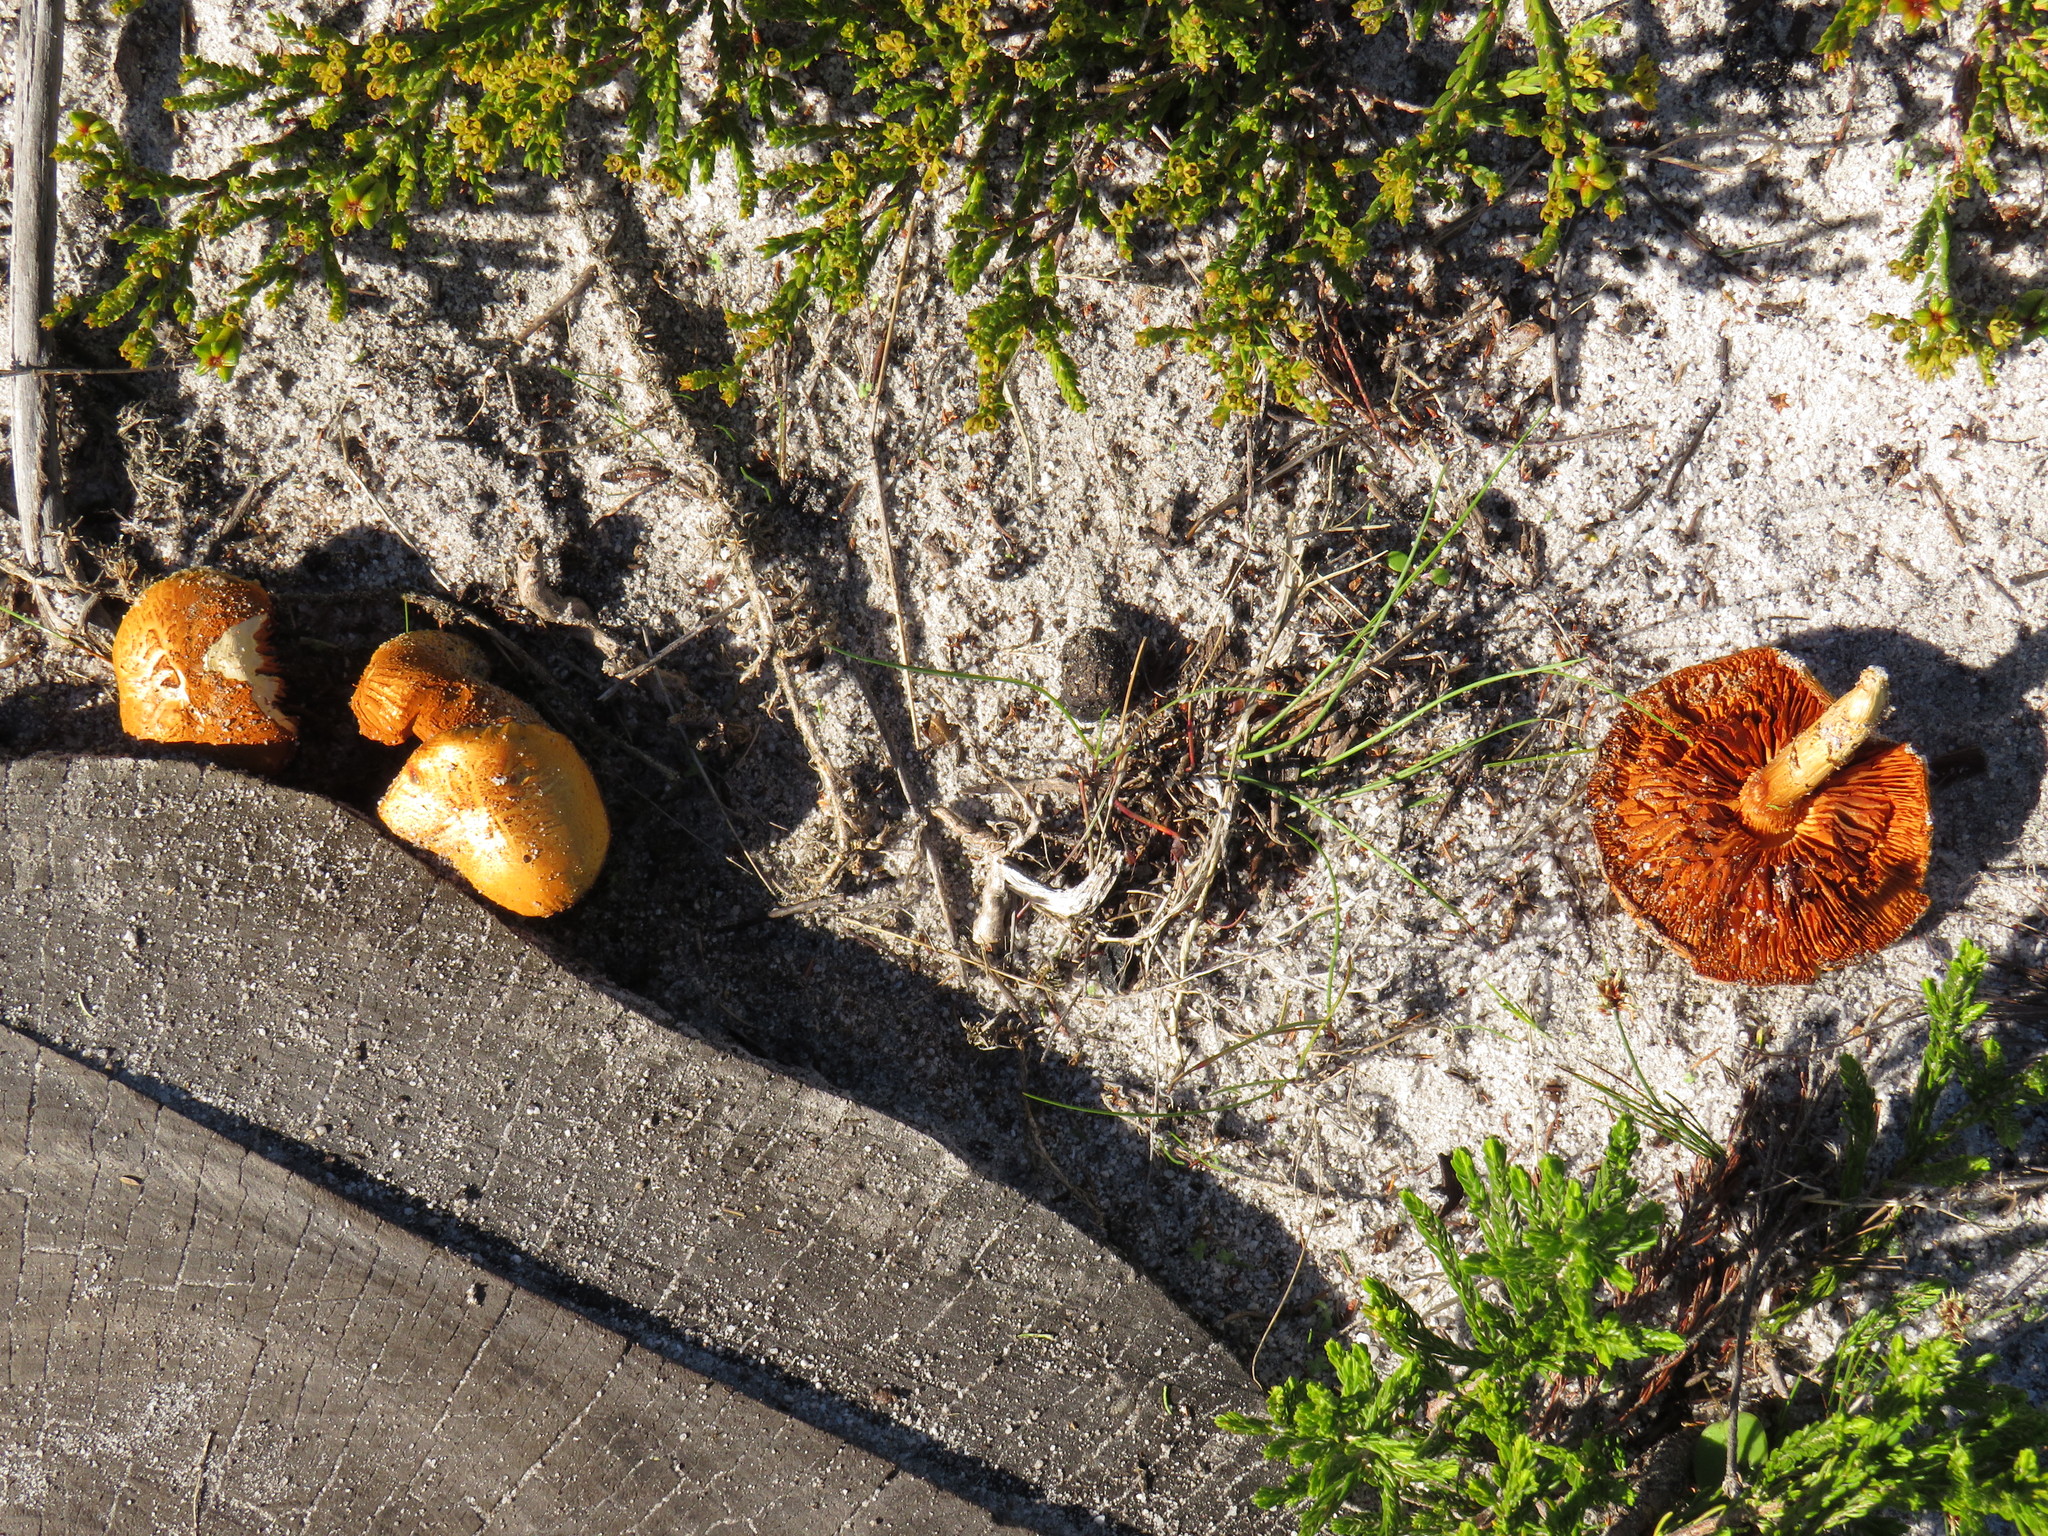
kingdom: Fungi
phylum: Basidiomycota
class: Agaricomycetes
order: Agaricales
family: Hymenogastraceae
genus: Gymnopilus
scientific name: Gymnopilus junonius
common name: Spectacular rustgill
